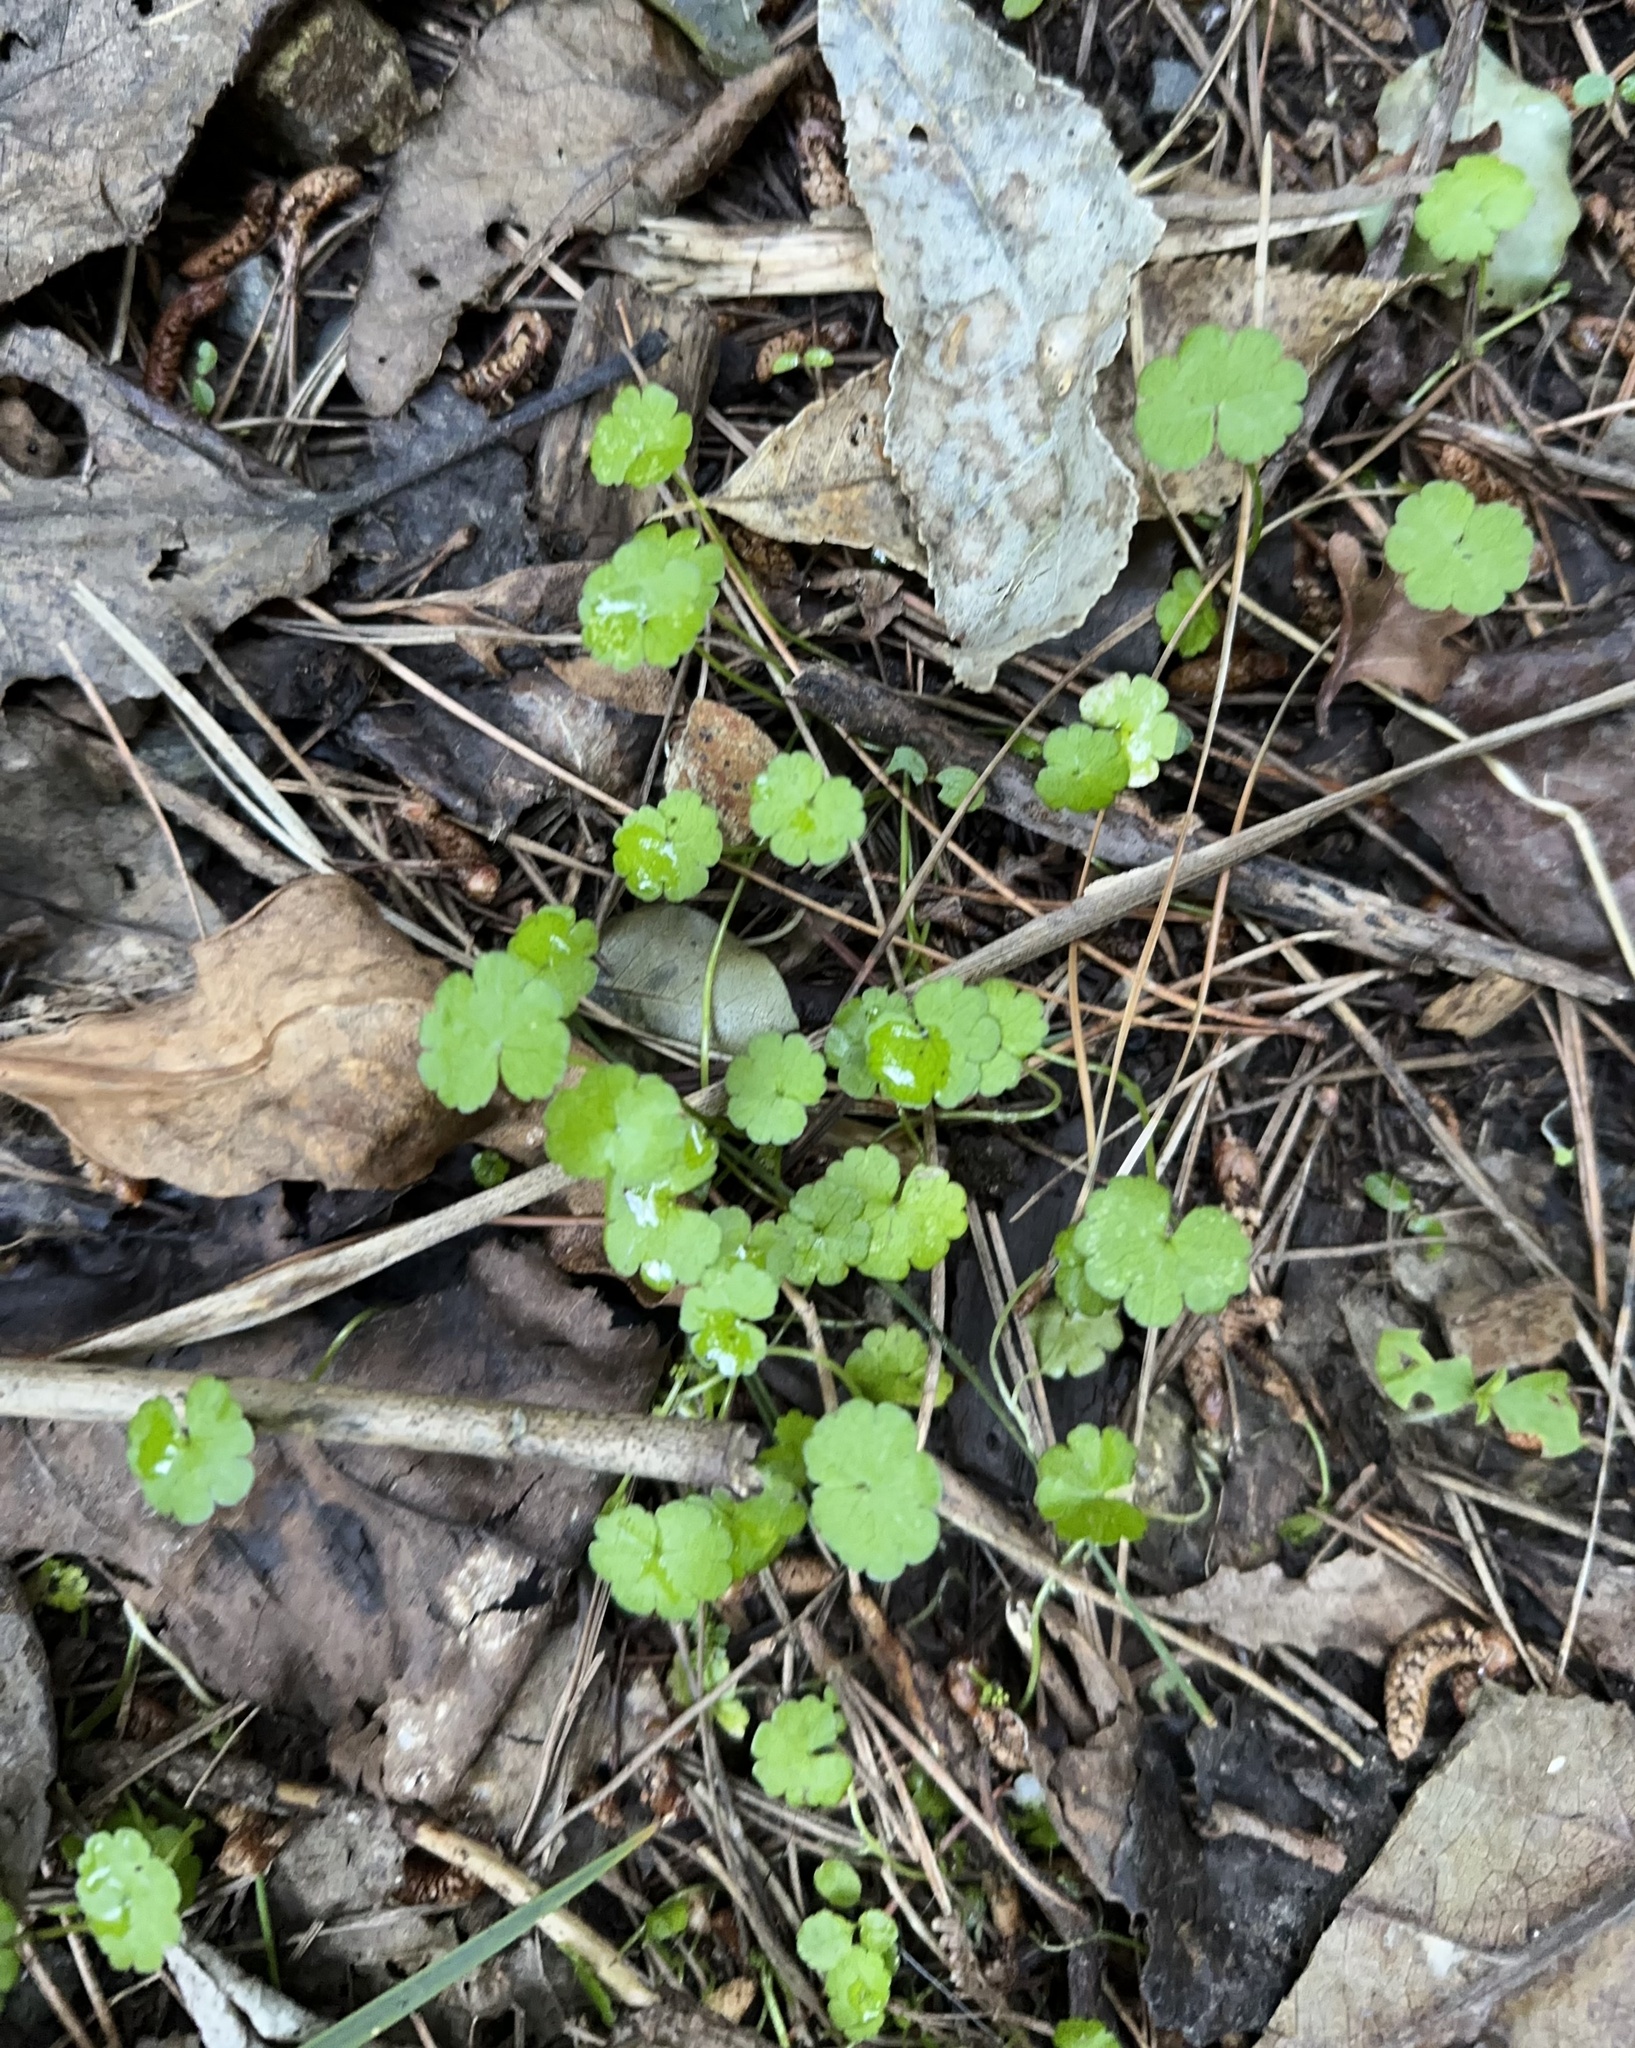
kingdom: Plantae
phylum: Tracheophyta
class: Magnoliopsida
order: Apiales
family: Araliaceae
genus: Hydrocotyle
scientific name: Hydrocotyle heteromeria
